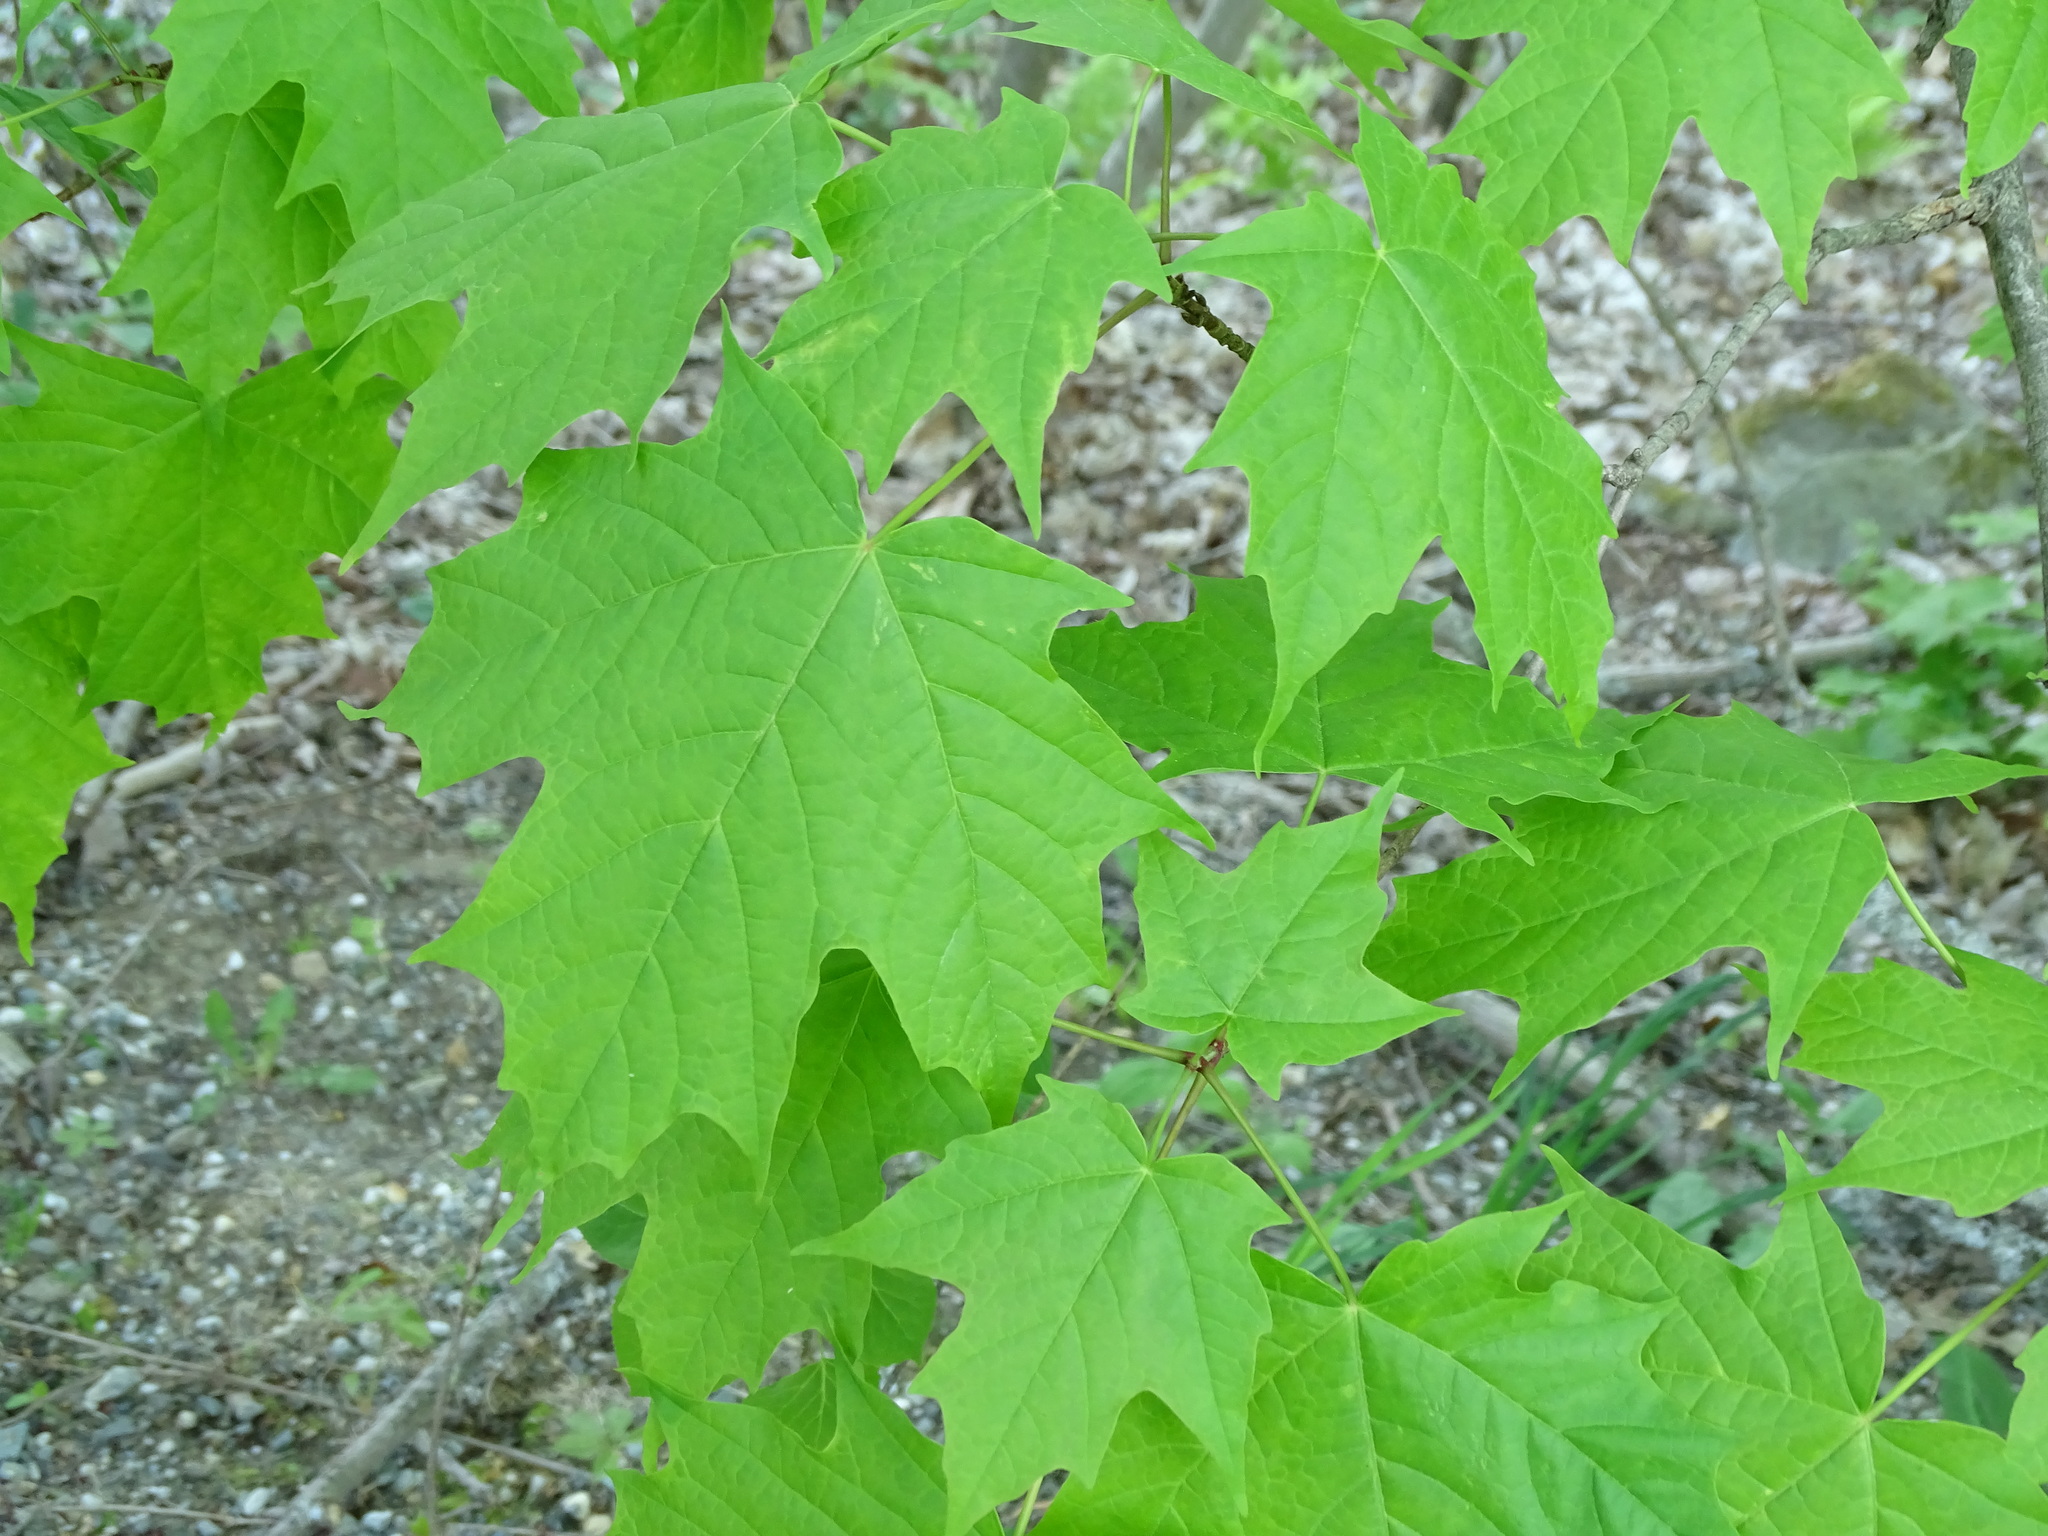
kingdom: Plantae
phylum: Tracheophyta
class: Magnoliopsida
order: Sapindales
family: Sapindaceae
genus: Acer
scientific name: Acer saccharum
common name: Sugar maple
